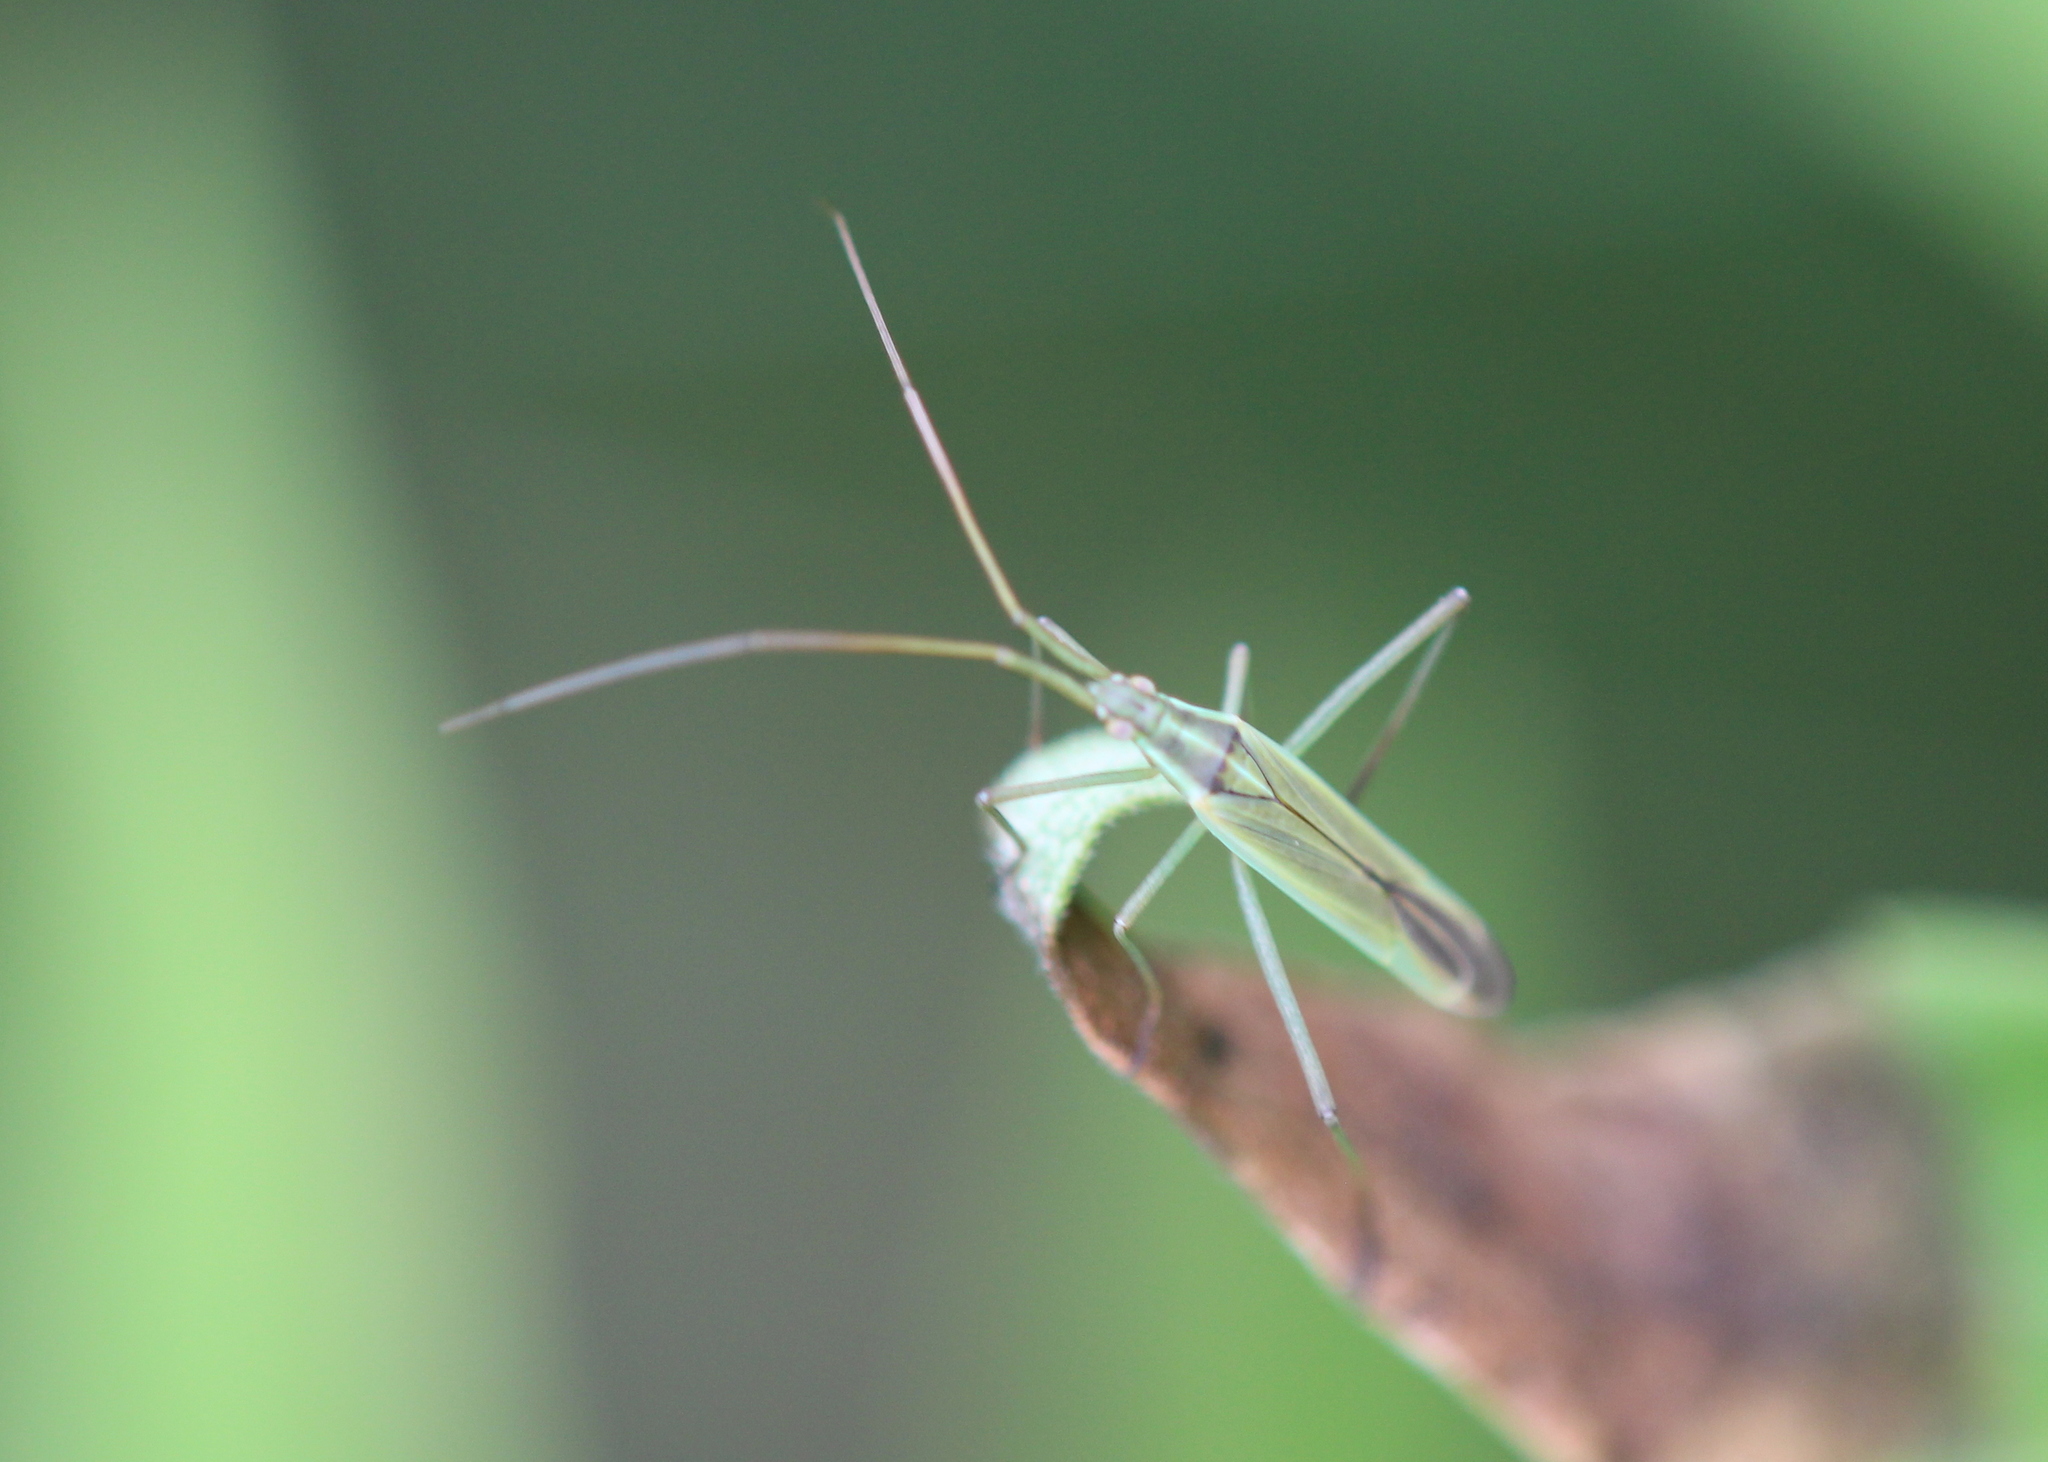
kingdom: Animalia
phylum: Arthropoda
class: Insecta
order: Hemiptera
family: Miridae
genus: Megaloceroea
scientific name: Megaloceroea recticornis
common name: Plant bug
